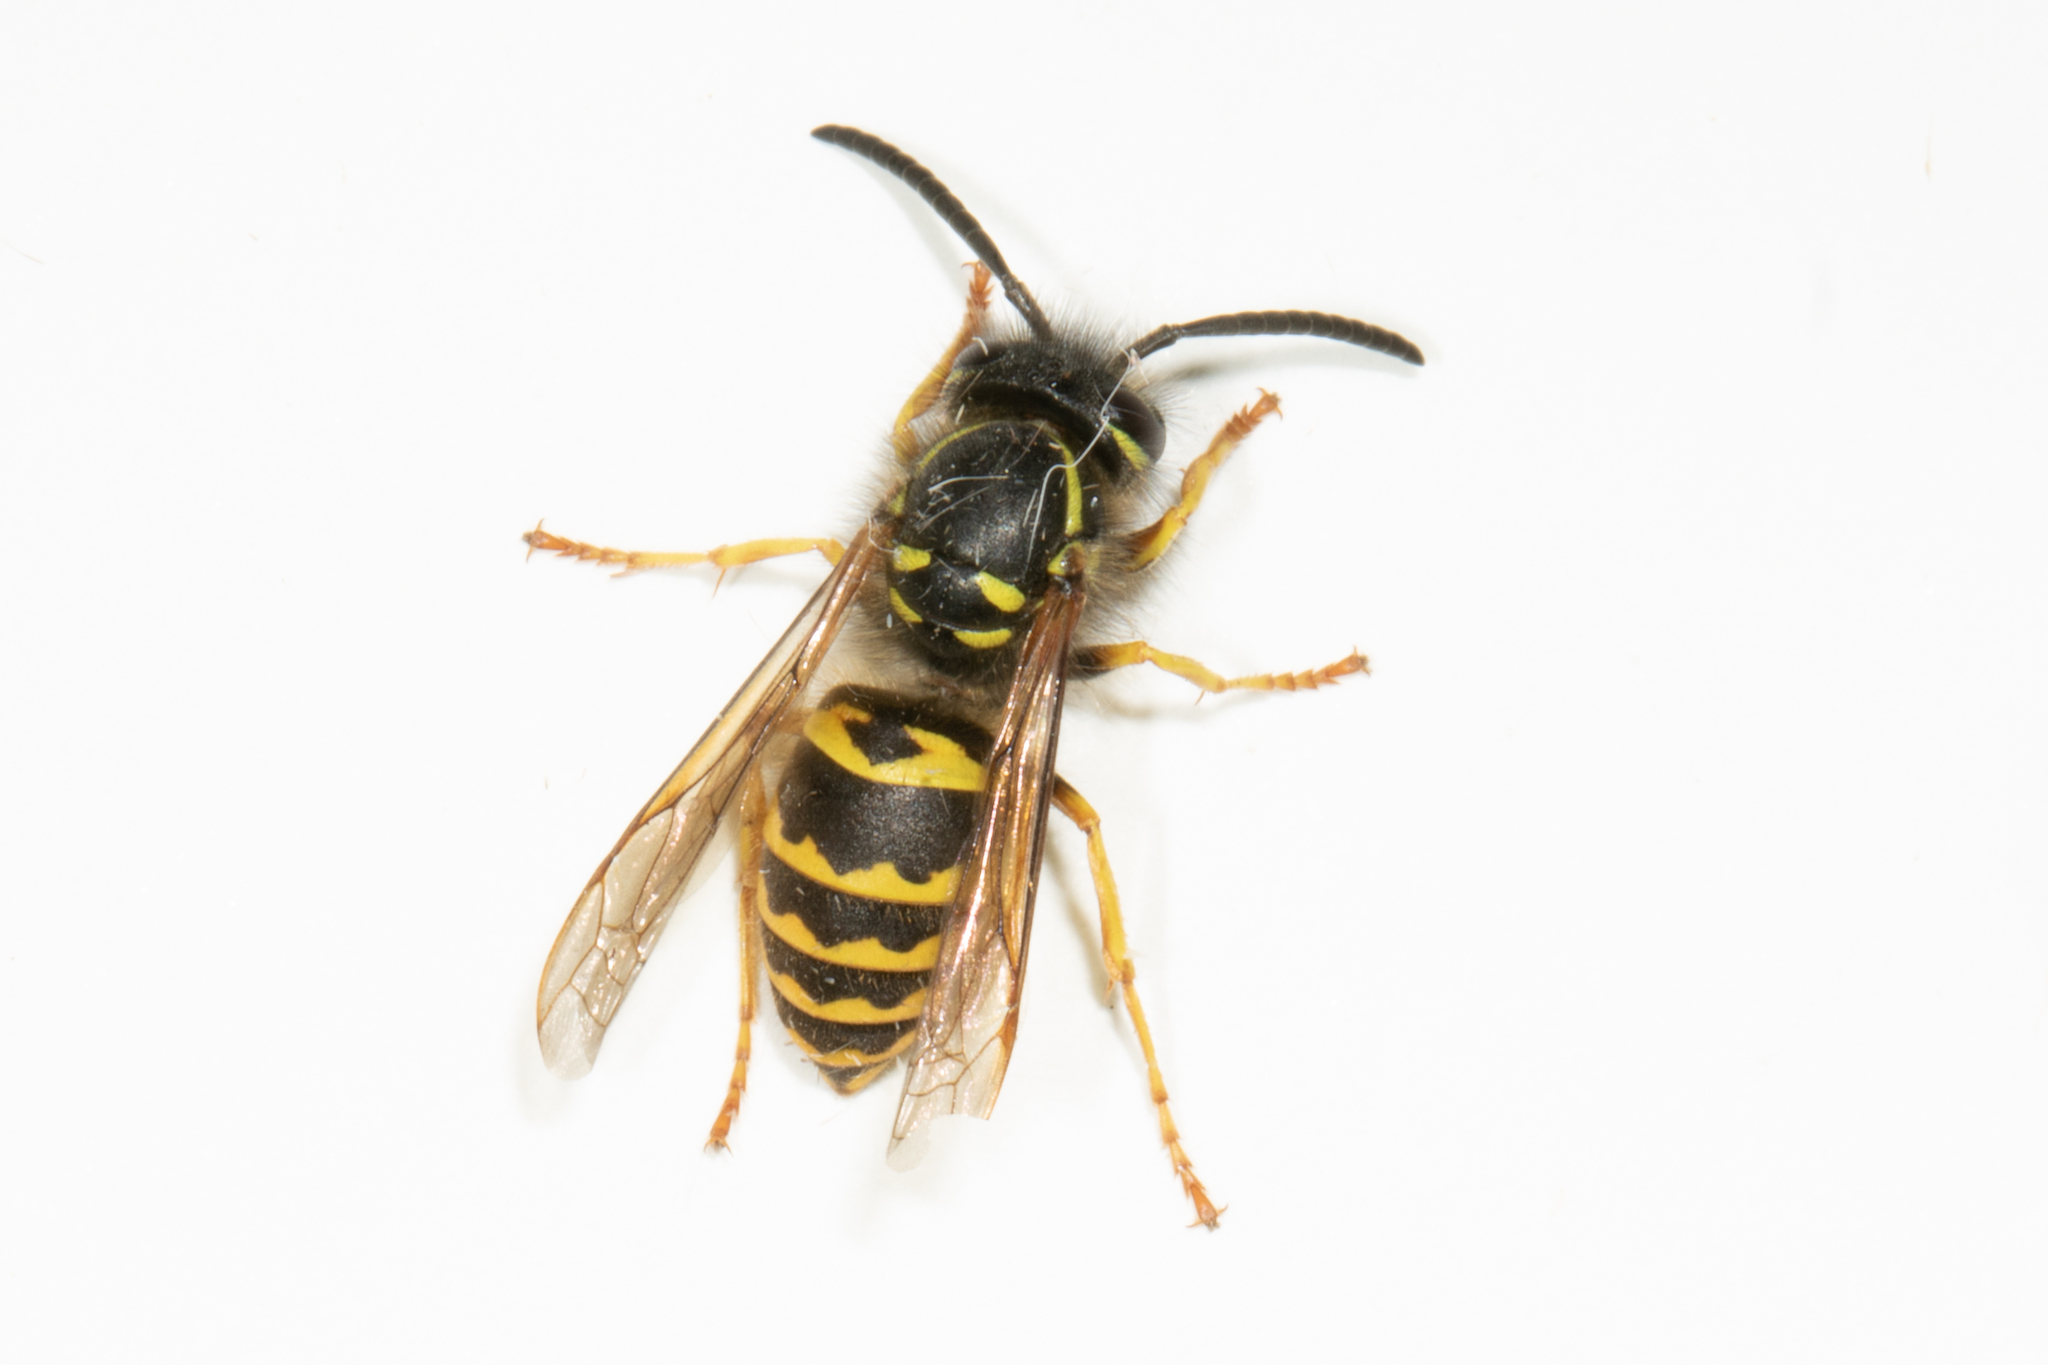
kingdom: Animalia
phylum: Arthropoda
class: Insecta
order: Hymenoptera
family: Vespidae
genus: Vespula
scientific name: Vespula alascensis
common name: Alaska yellowjacket
